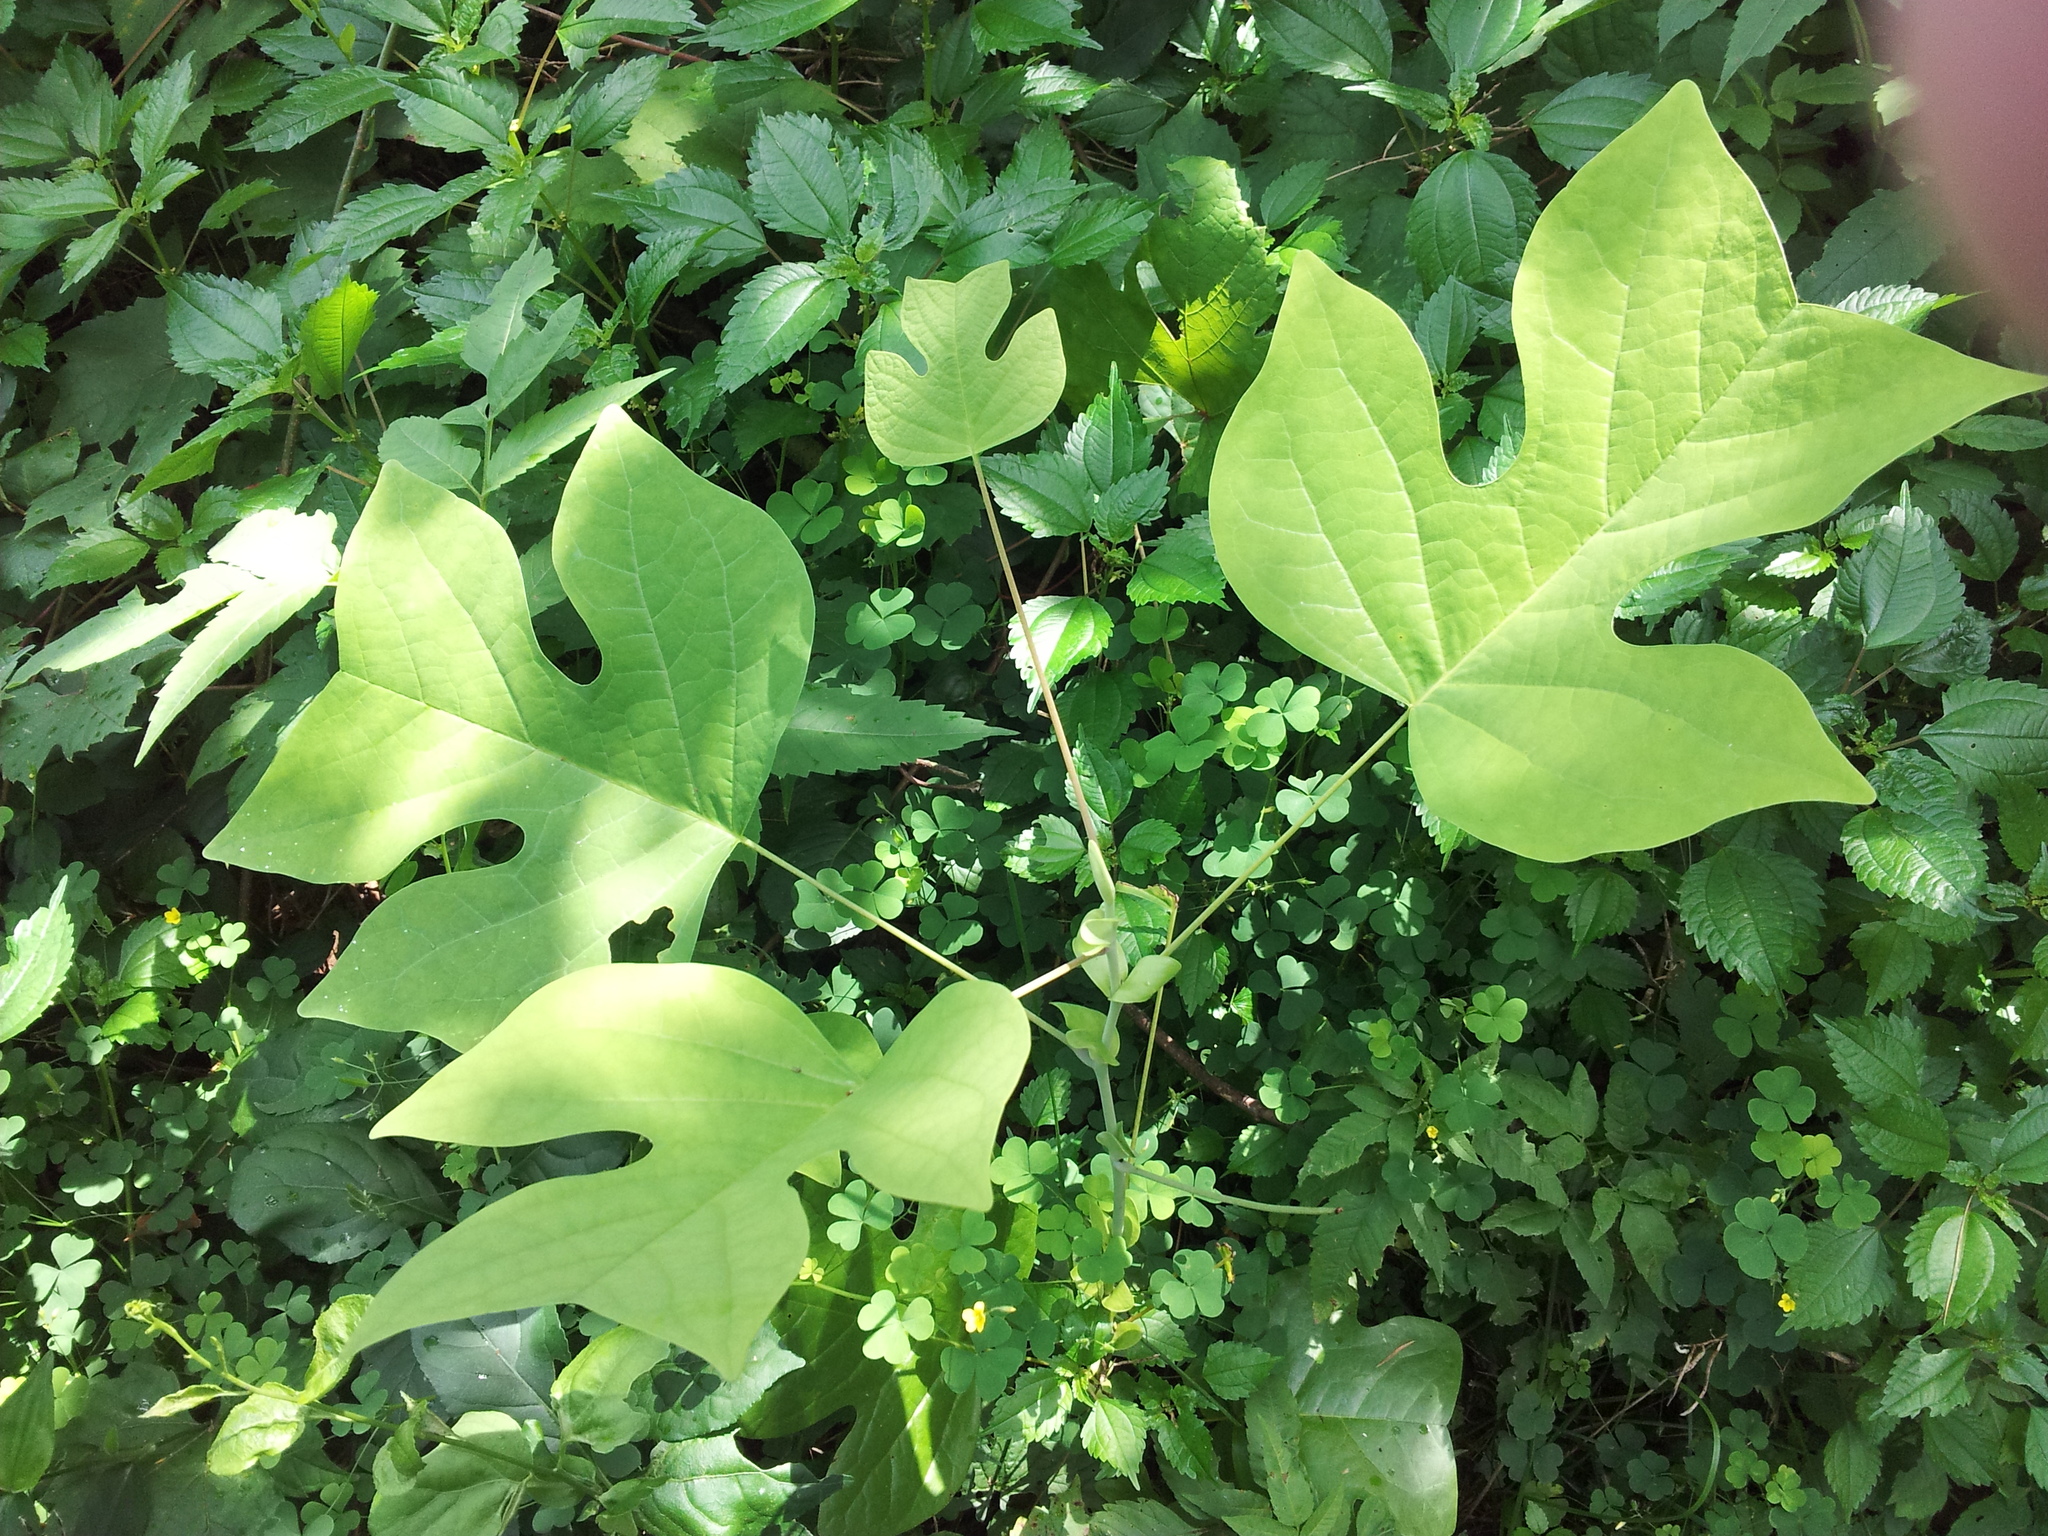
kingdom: Plantae
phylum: Tracheophyta
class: Magnoliopsida
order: Magnoliales
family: Magnoliaceae
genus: Liriodendron
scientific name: Liriodendron tulipifera
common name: Tulip tree
